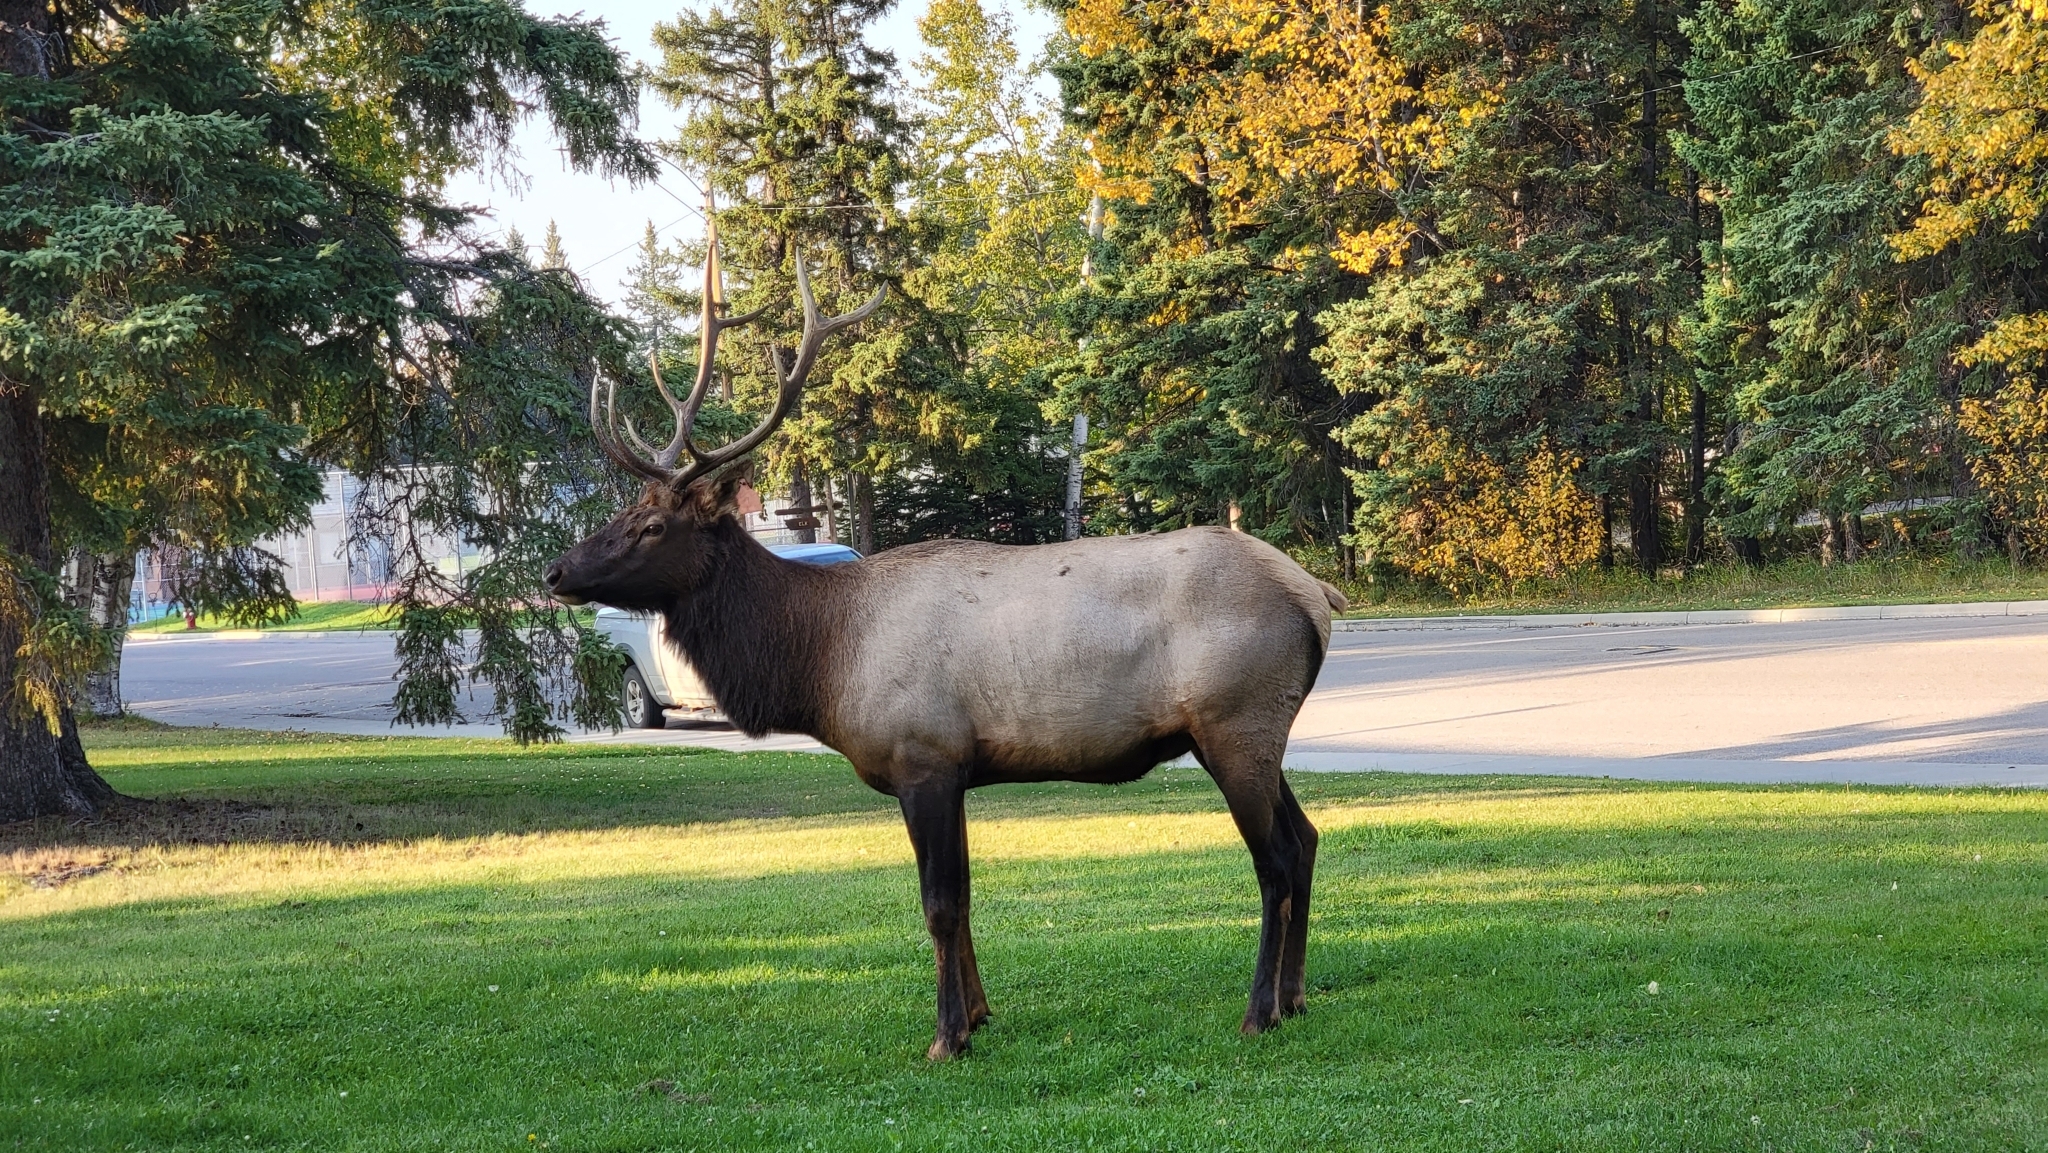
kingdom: Animalia
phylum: Chordata
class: Mammalia
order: Artiodactyla
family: Cervidae
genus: Cervus
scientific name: Cervus elaphus
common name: Red deer
